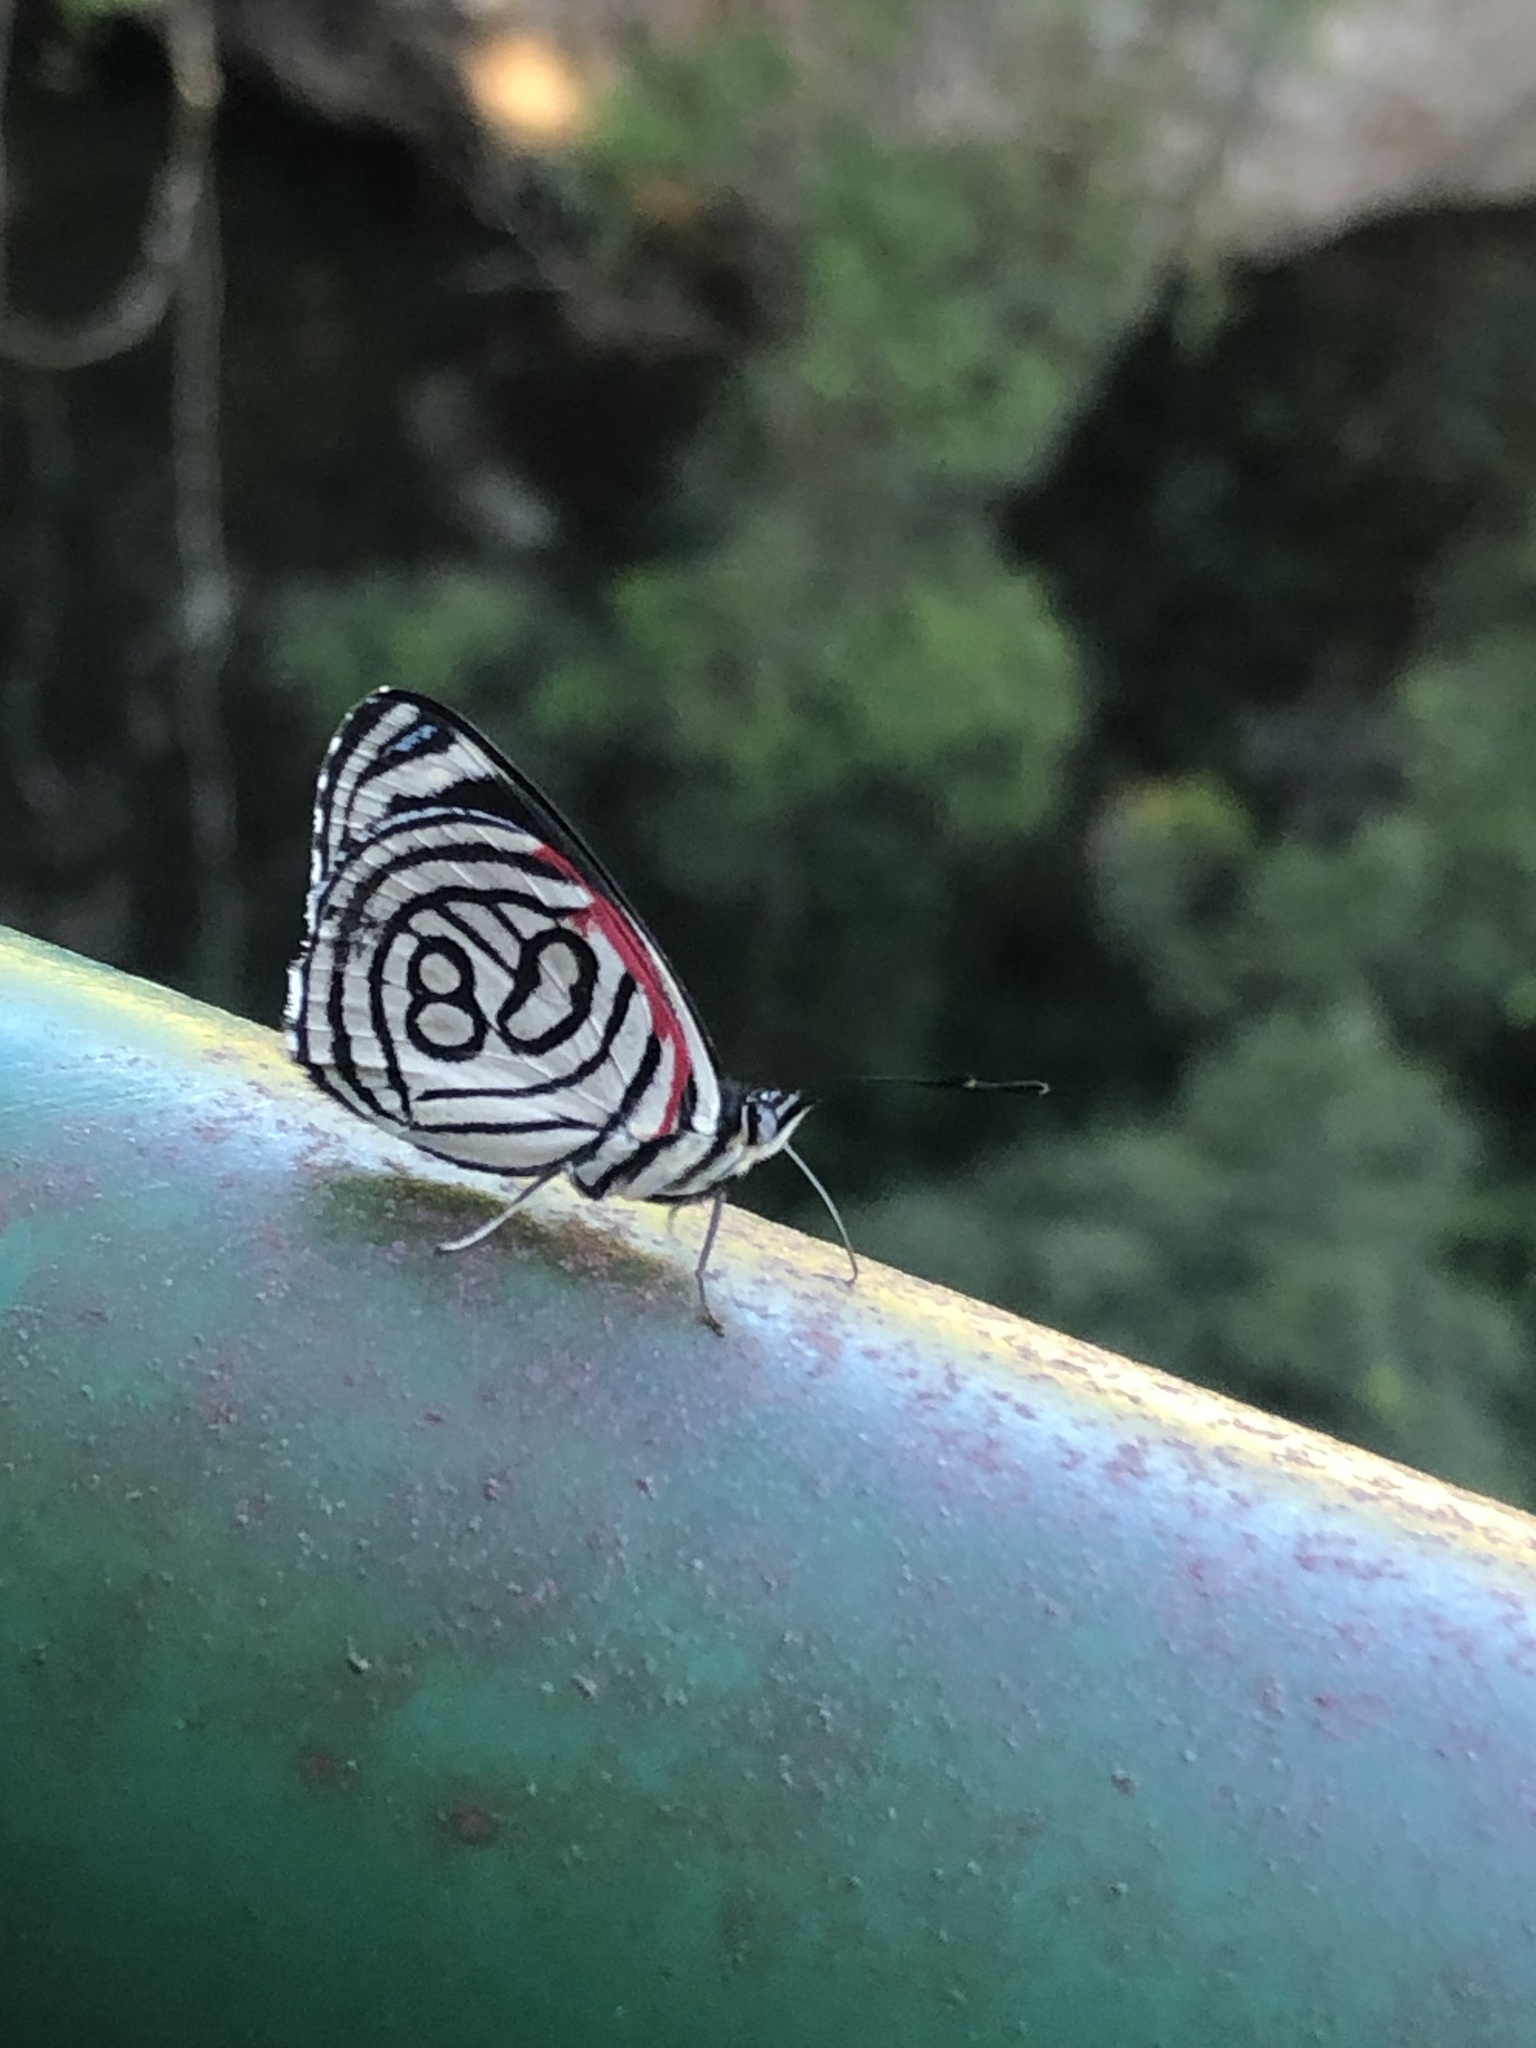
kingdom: Animalia
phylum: Arthropoda
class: Insecta
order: Lepidoptera
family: Nymphalidae
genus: Diaethria
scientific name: Diaethria candrena
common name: Number eighty
